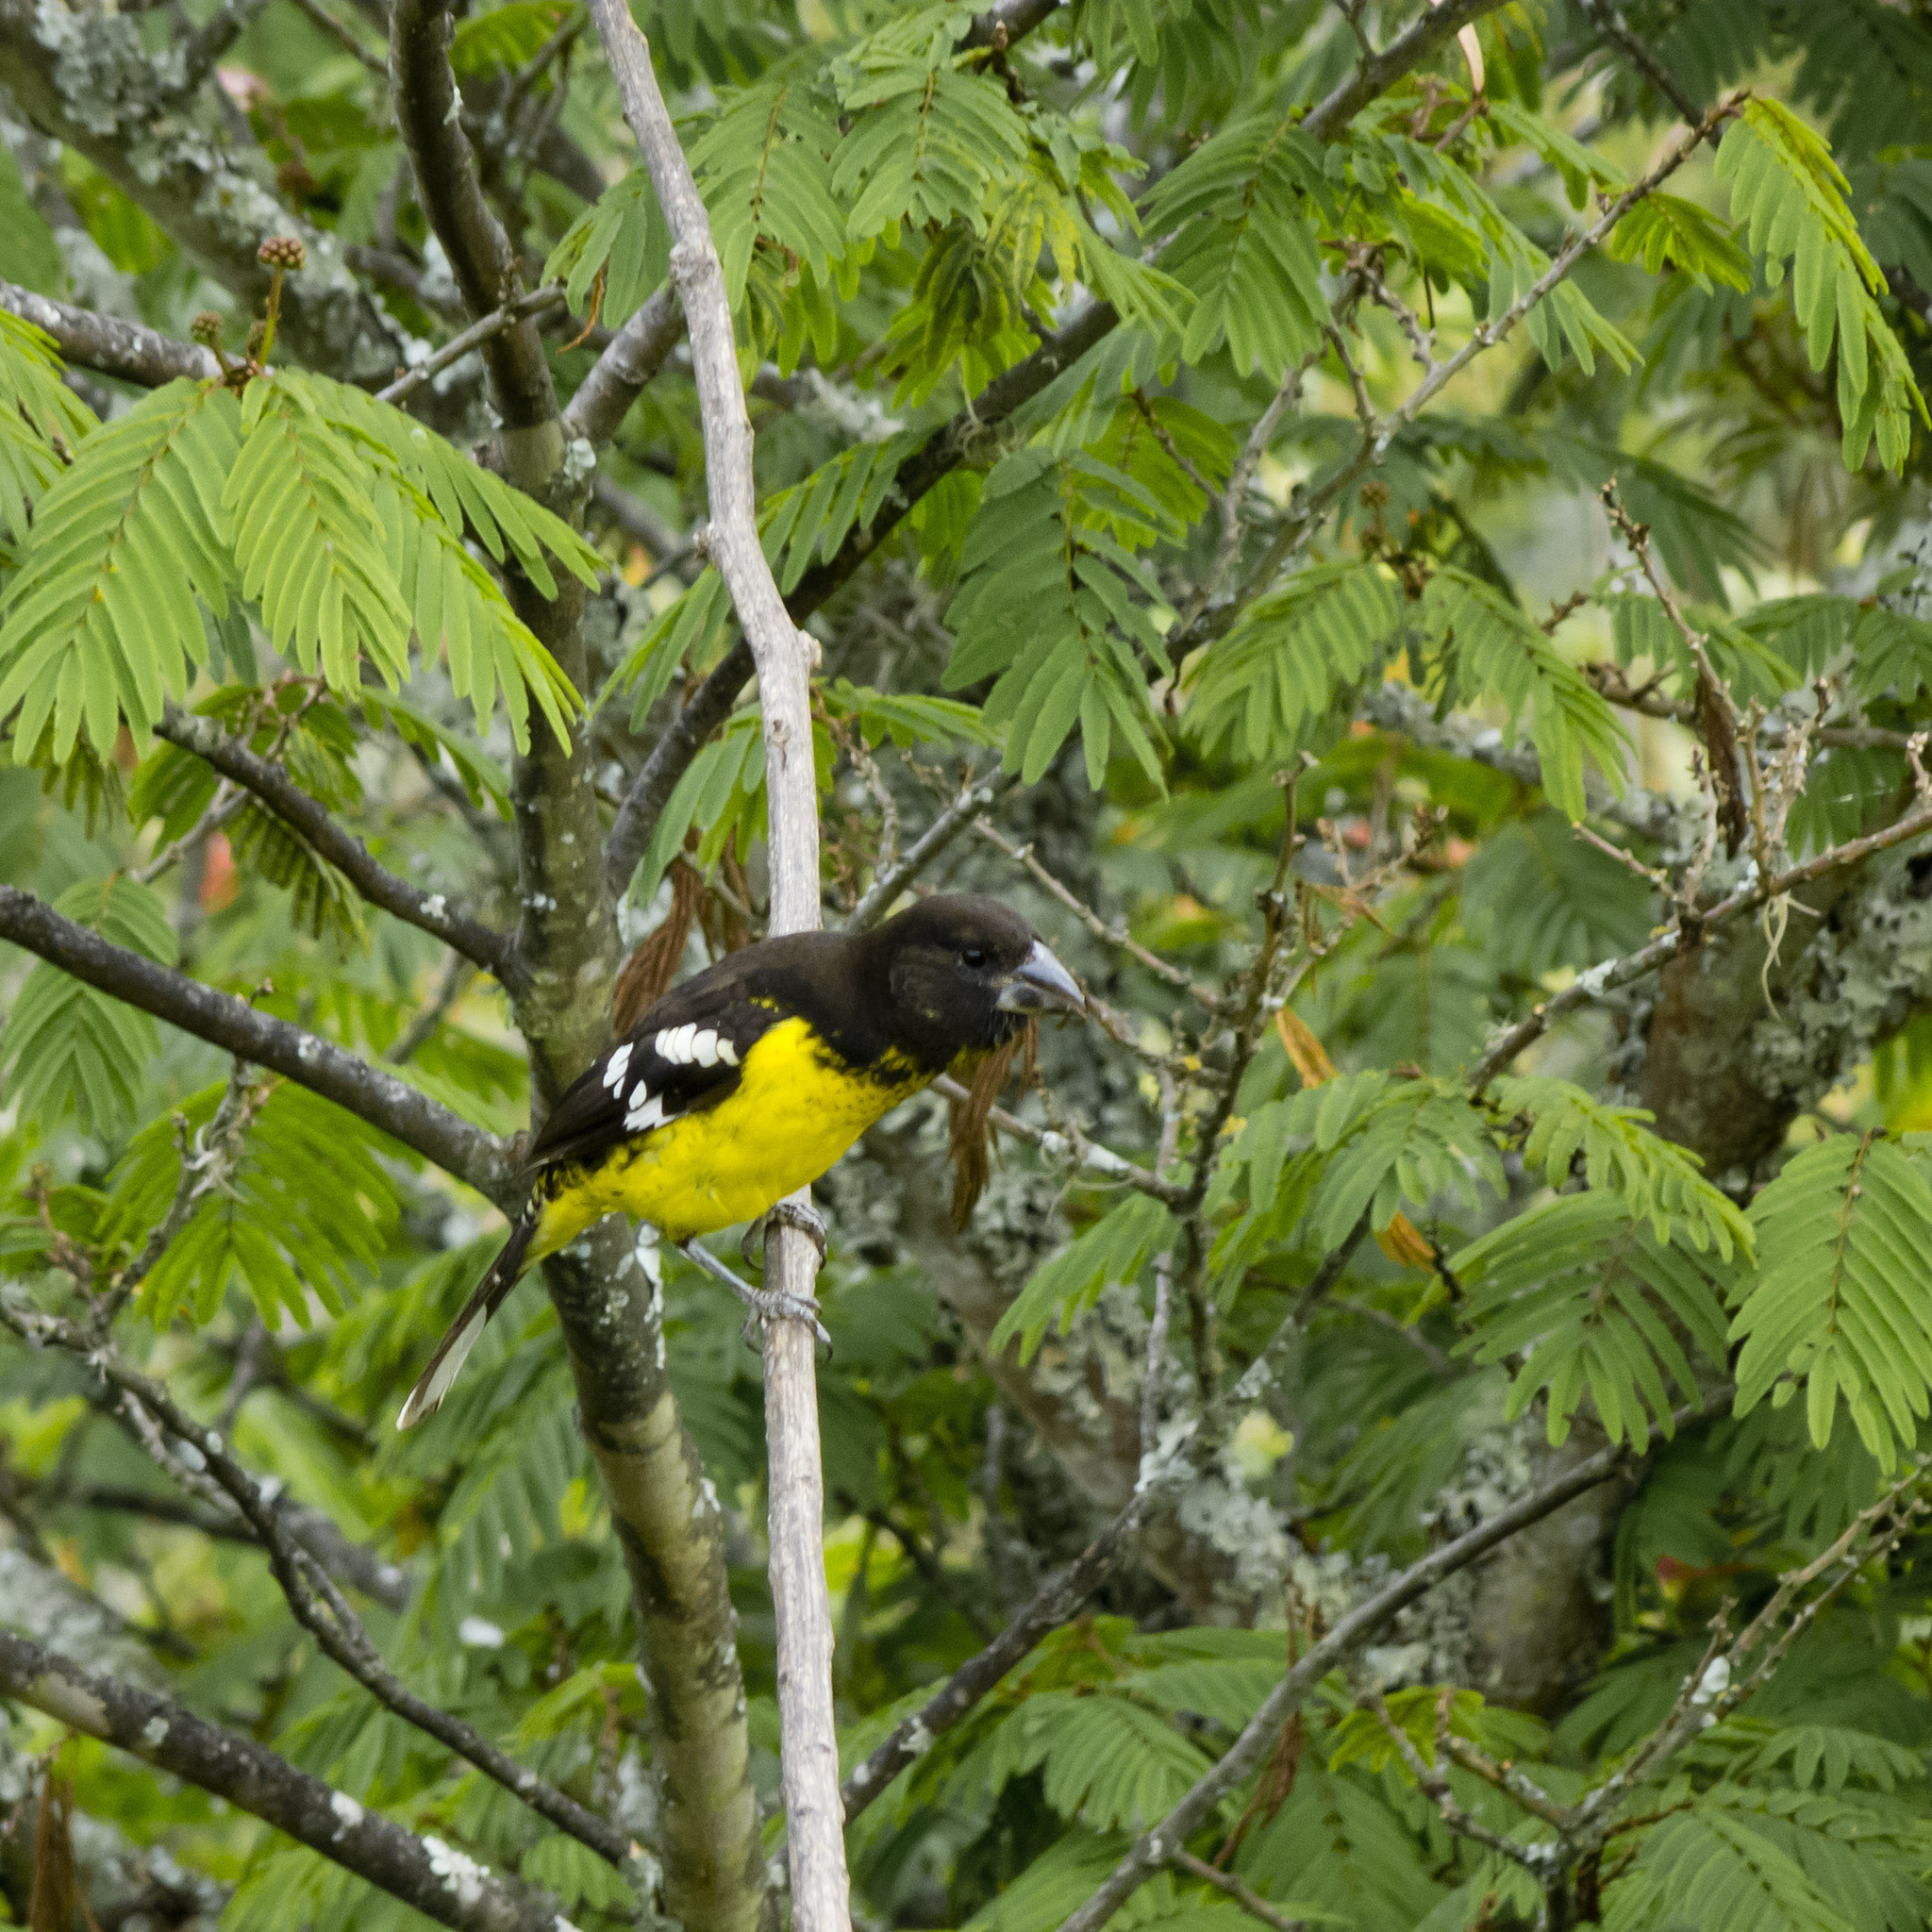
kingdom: Animalia
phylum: Chordata
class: Aves
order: Passeriformes
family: Cardinalidae
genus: Pheucticus
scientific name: Pheucticus aureoventris
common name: Black-backed grosbeak
